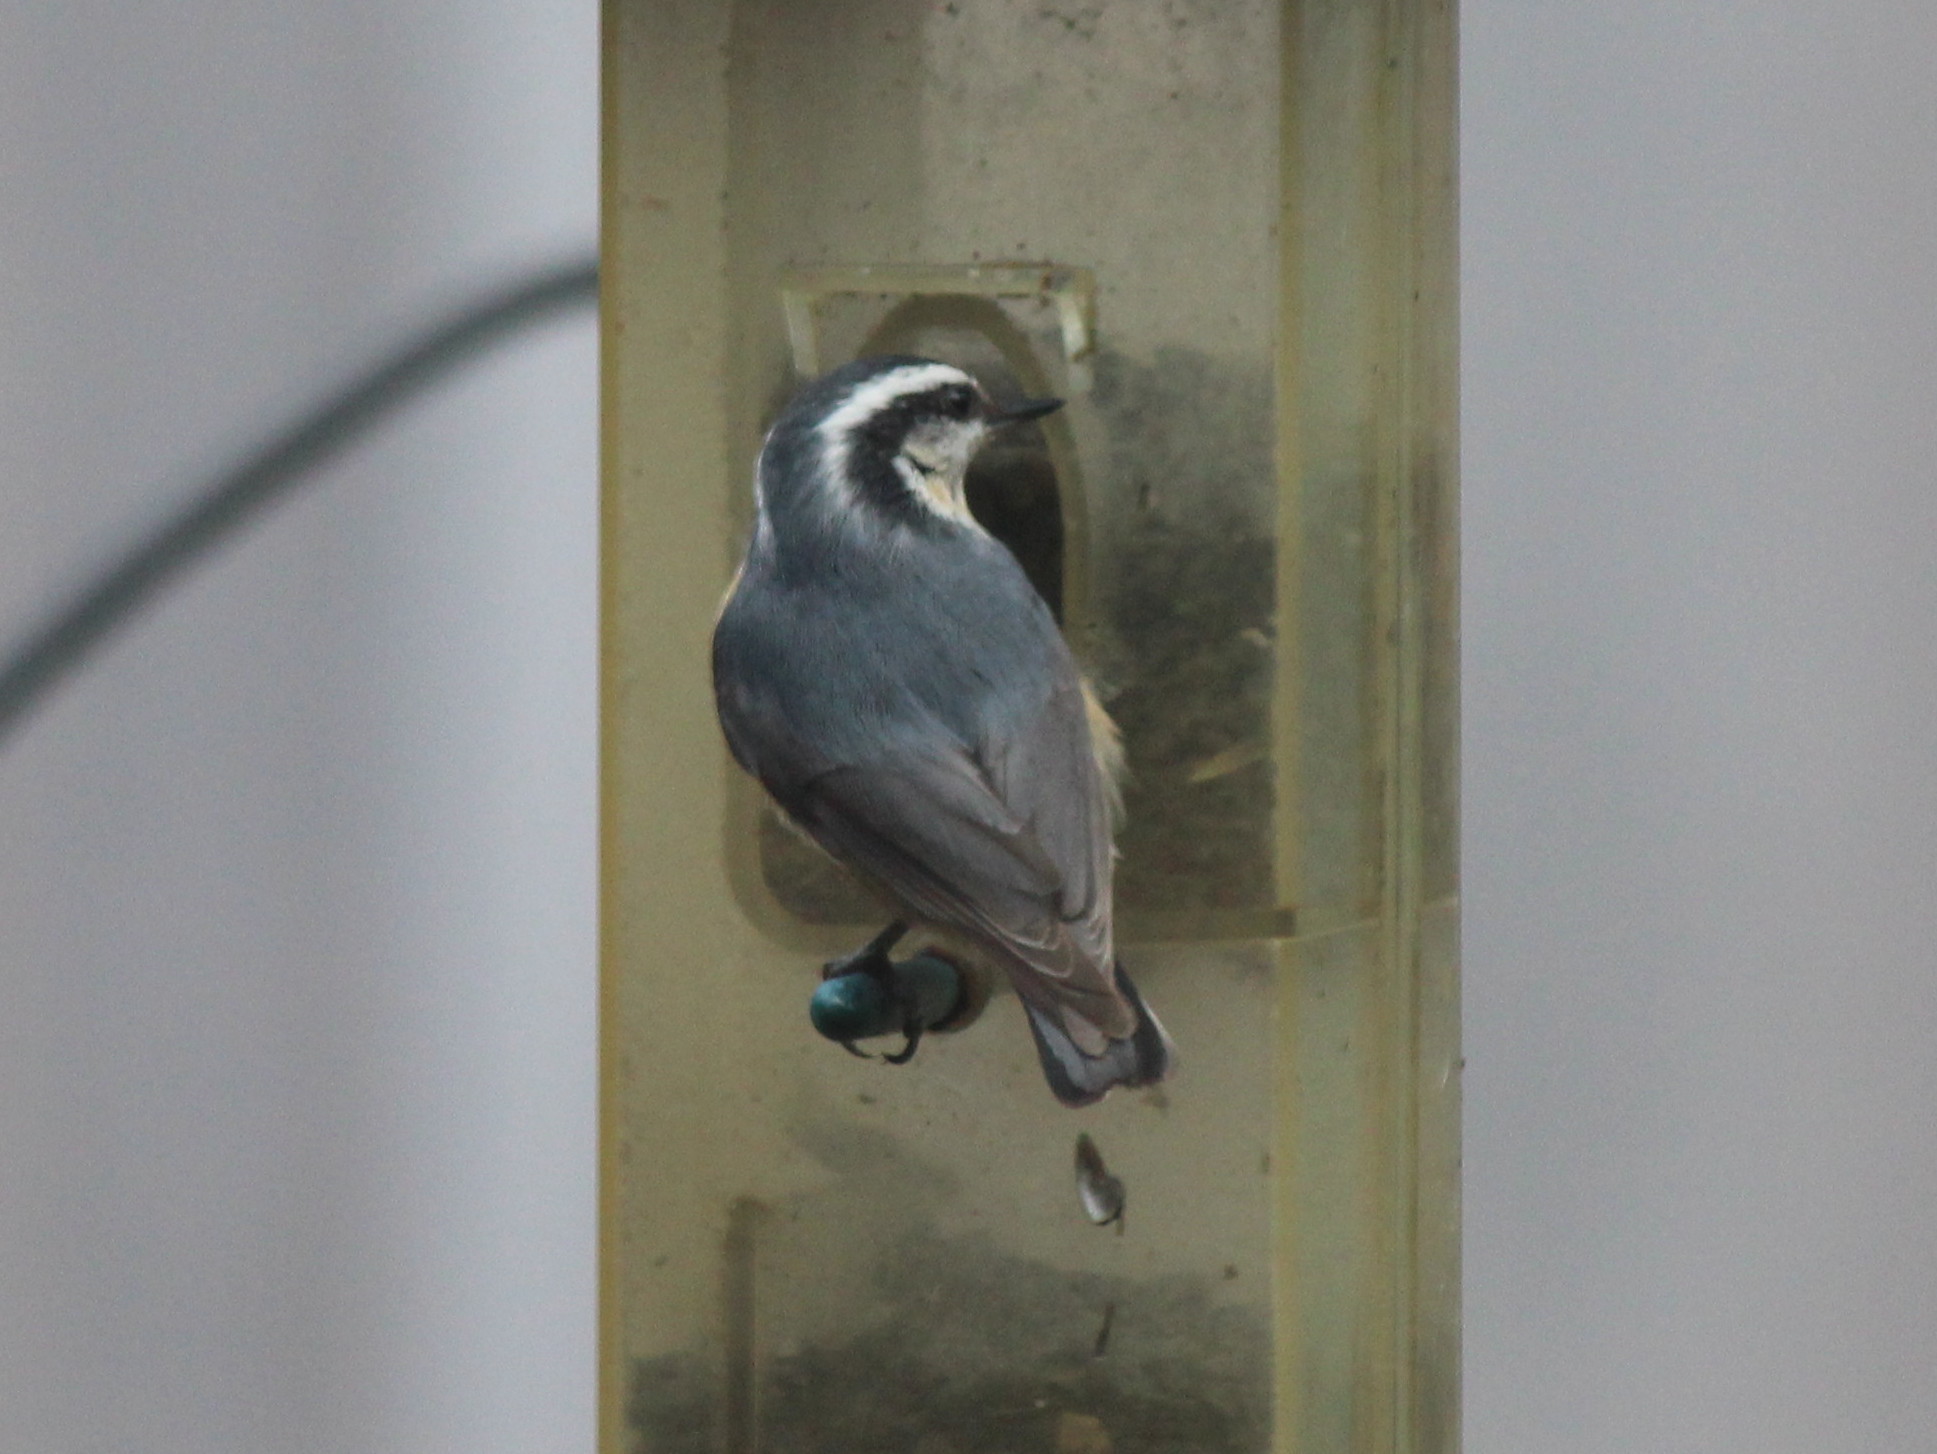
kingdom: Animalia
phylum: Chordata
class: Aves
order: Passeriformes
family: Sittidae
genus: Sitta
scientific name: Sitta canadensis
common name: Red-breasted nuthatch
